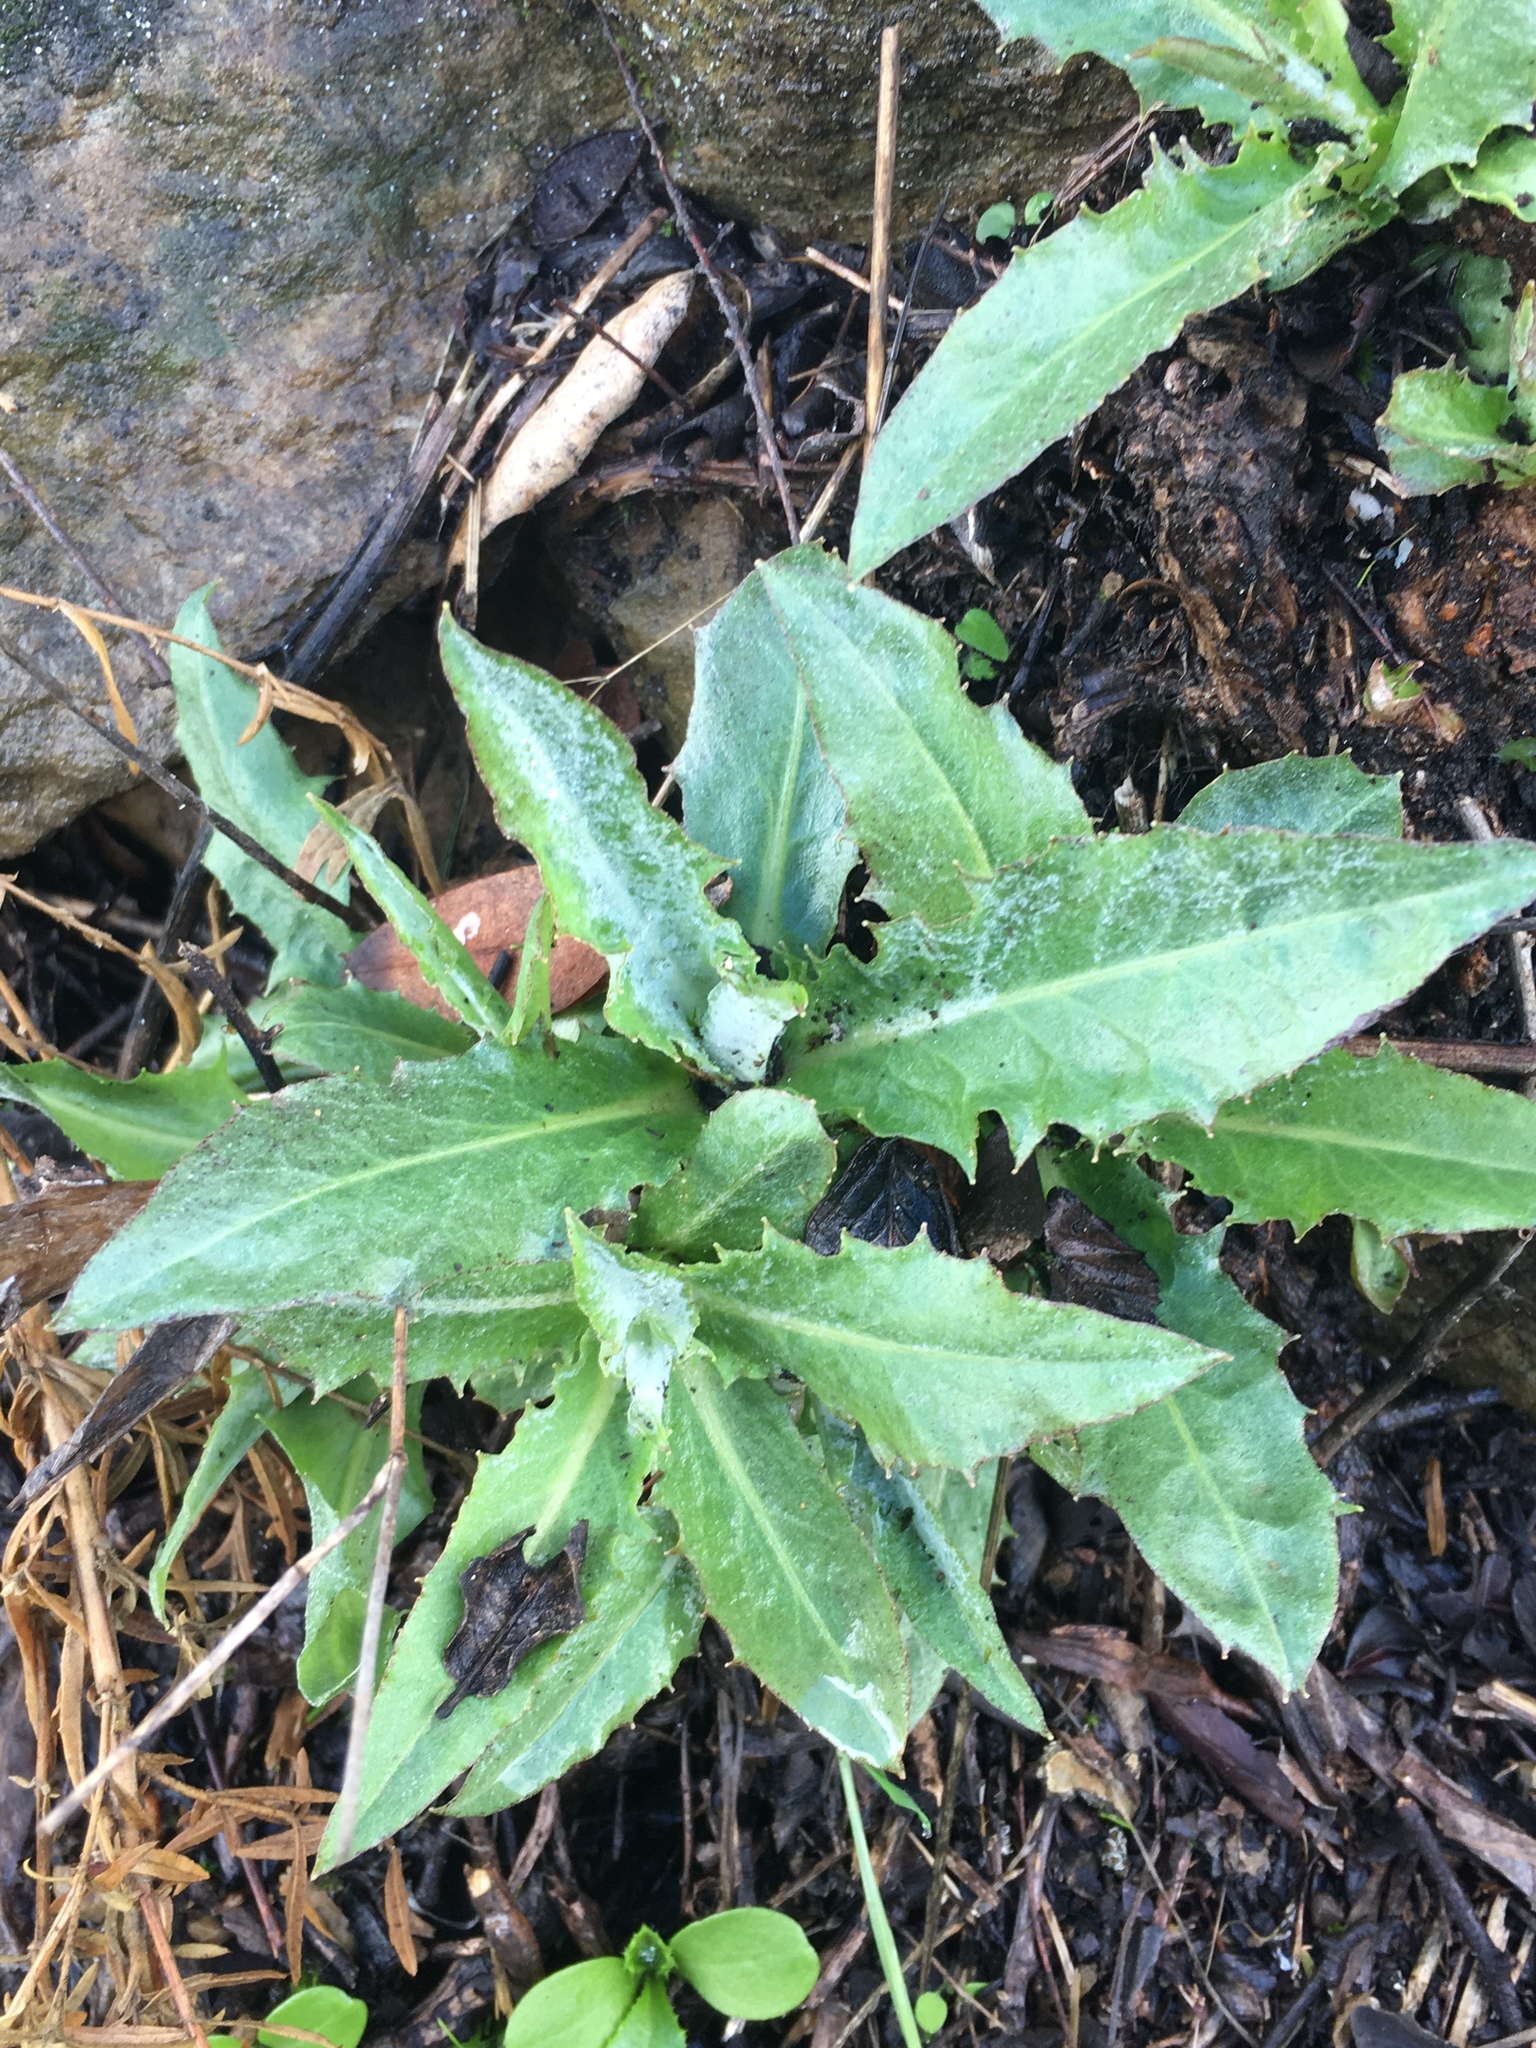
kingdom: Plantae
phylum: Tracheophyta
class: Magnoliopsida
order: Asterales
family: Asteraceae
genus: Stephanomeria
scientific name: Stephanomeria cichoriacea
